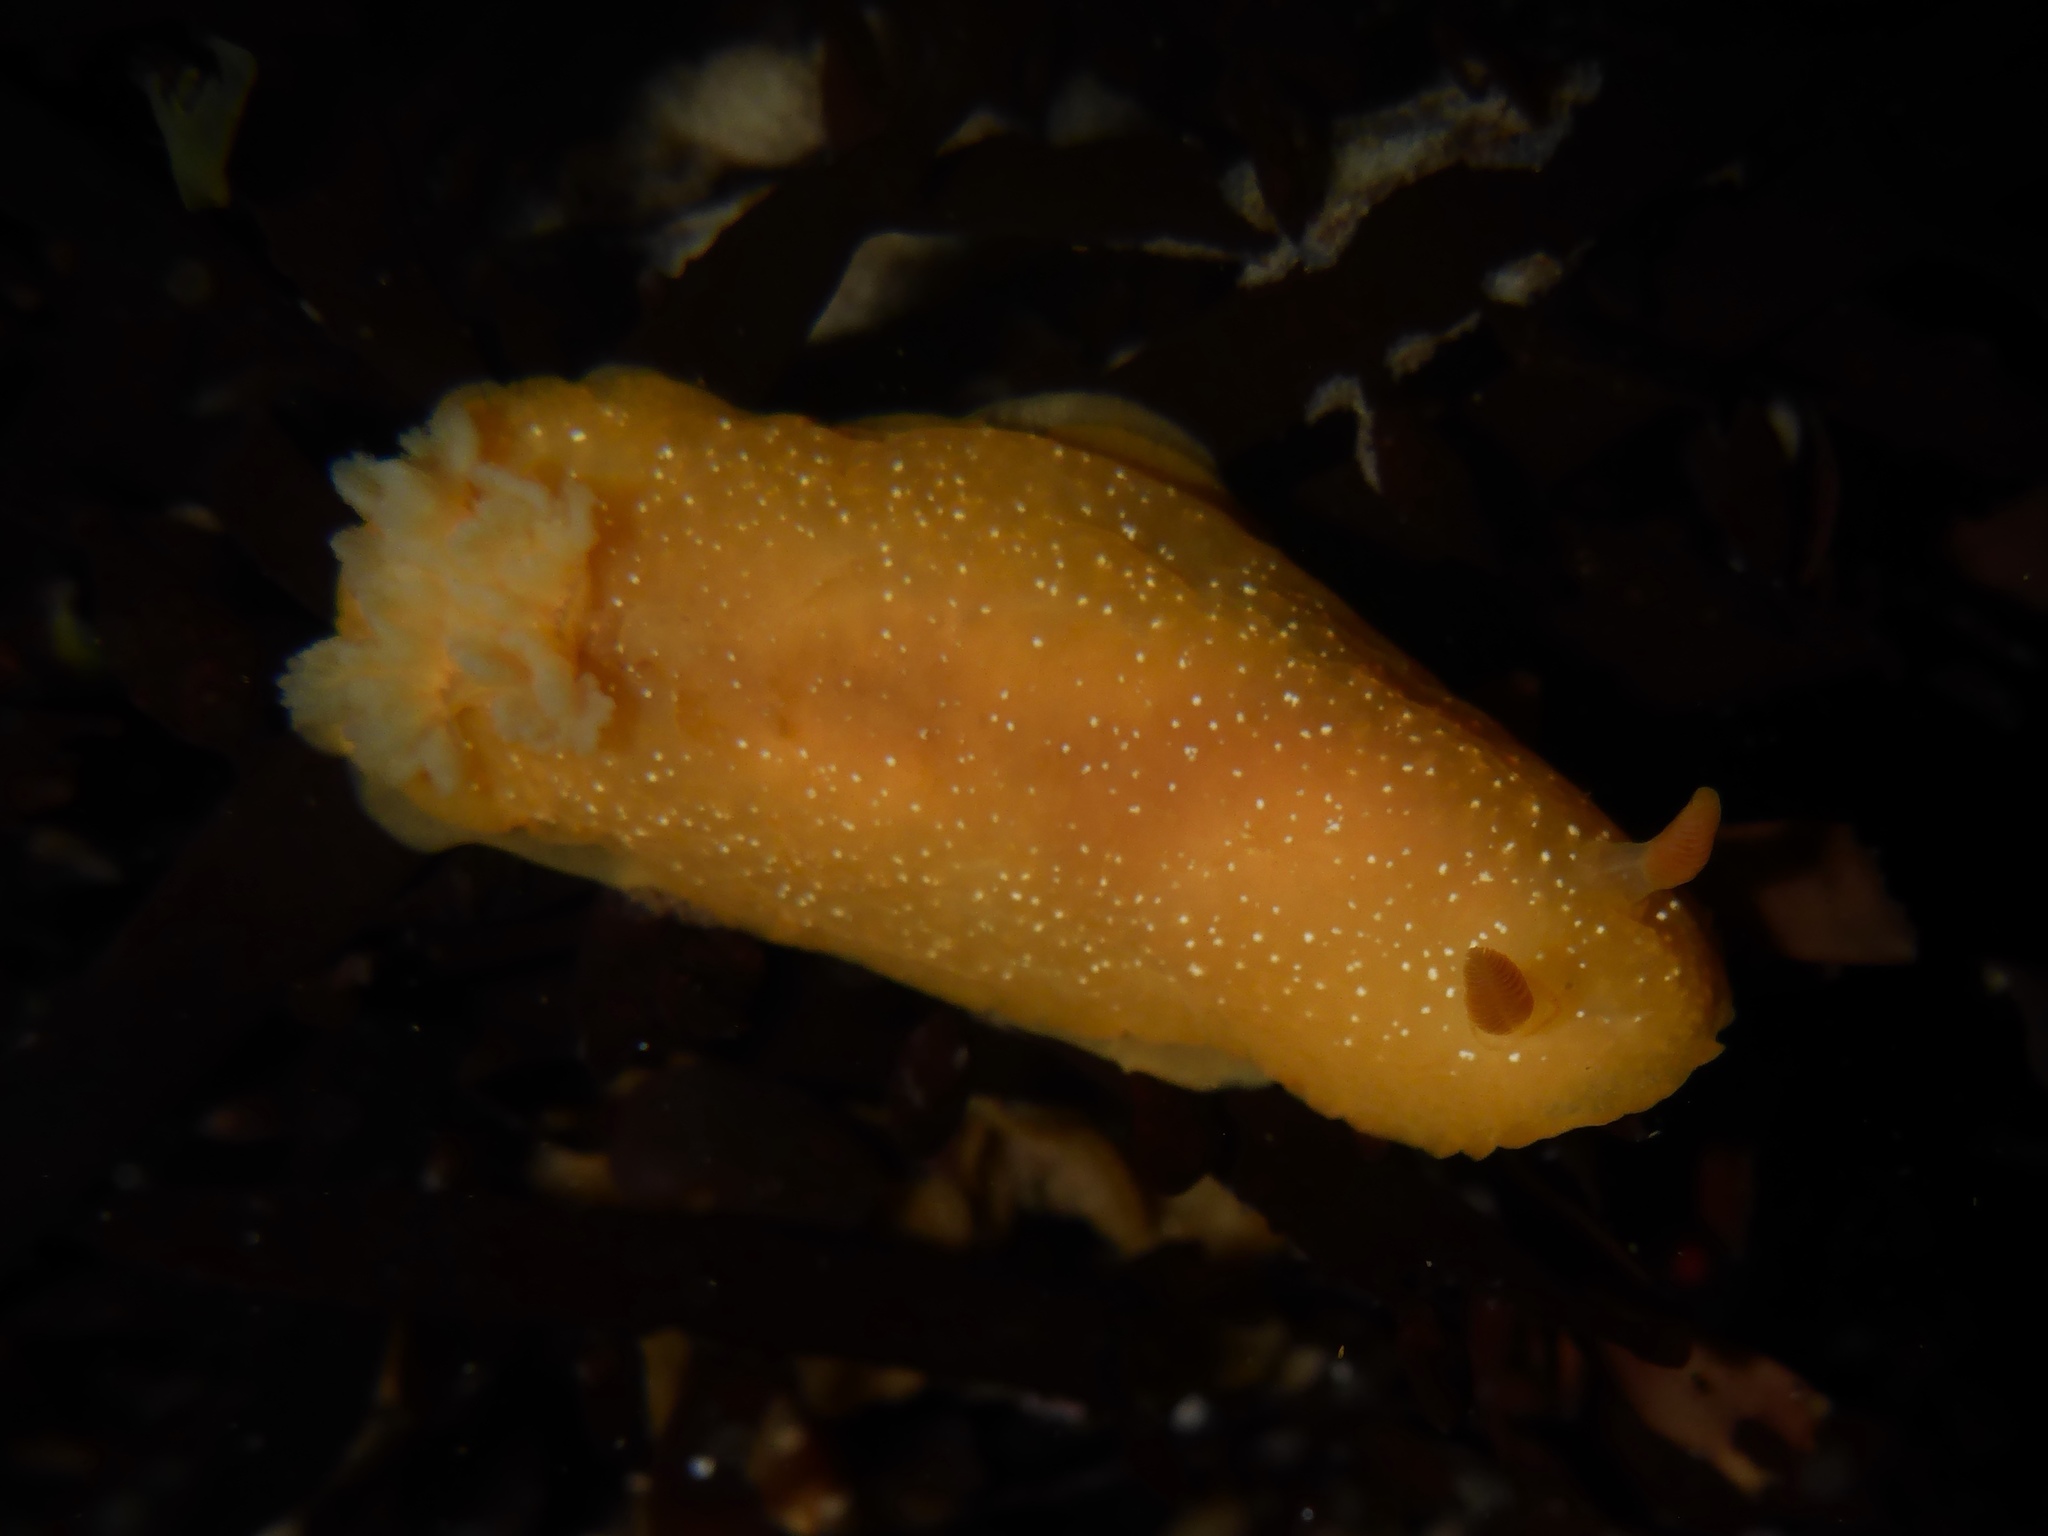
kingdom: Animalia
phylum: Mollusca
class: Gastropoda
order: Nudibranchia
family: Dendrodorididae
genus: Doriopsilla
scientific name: Doriopsilla fulva
